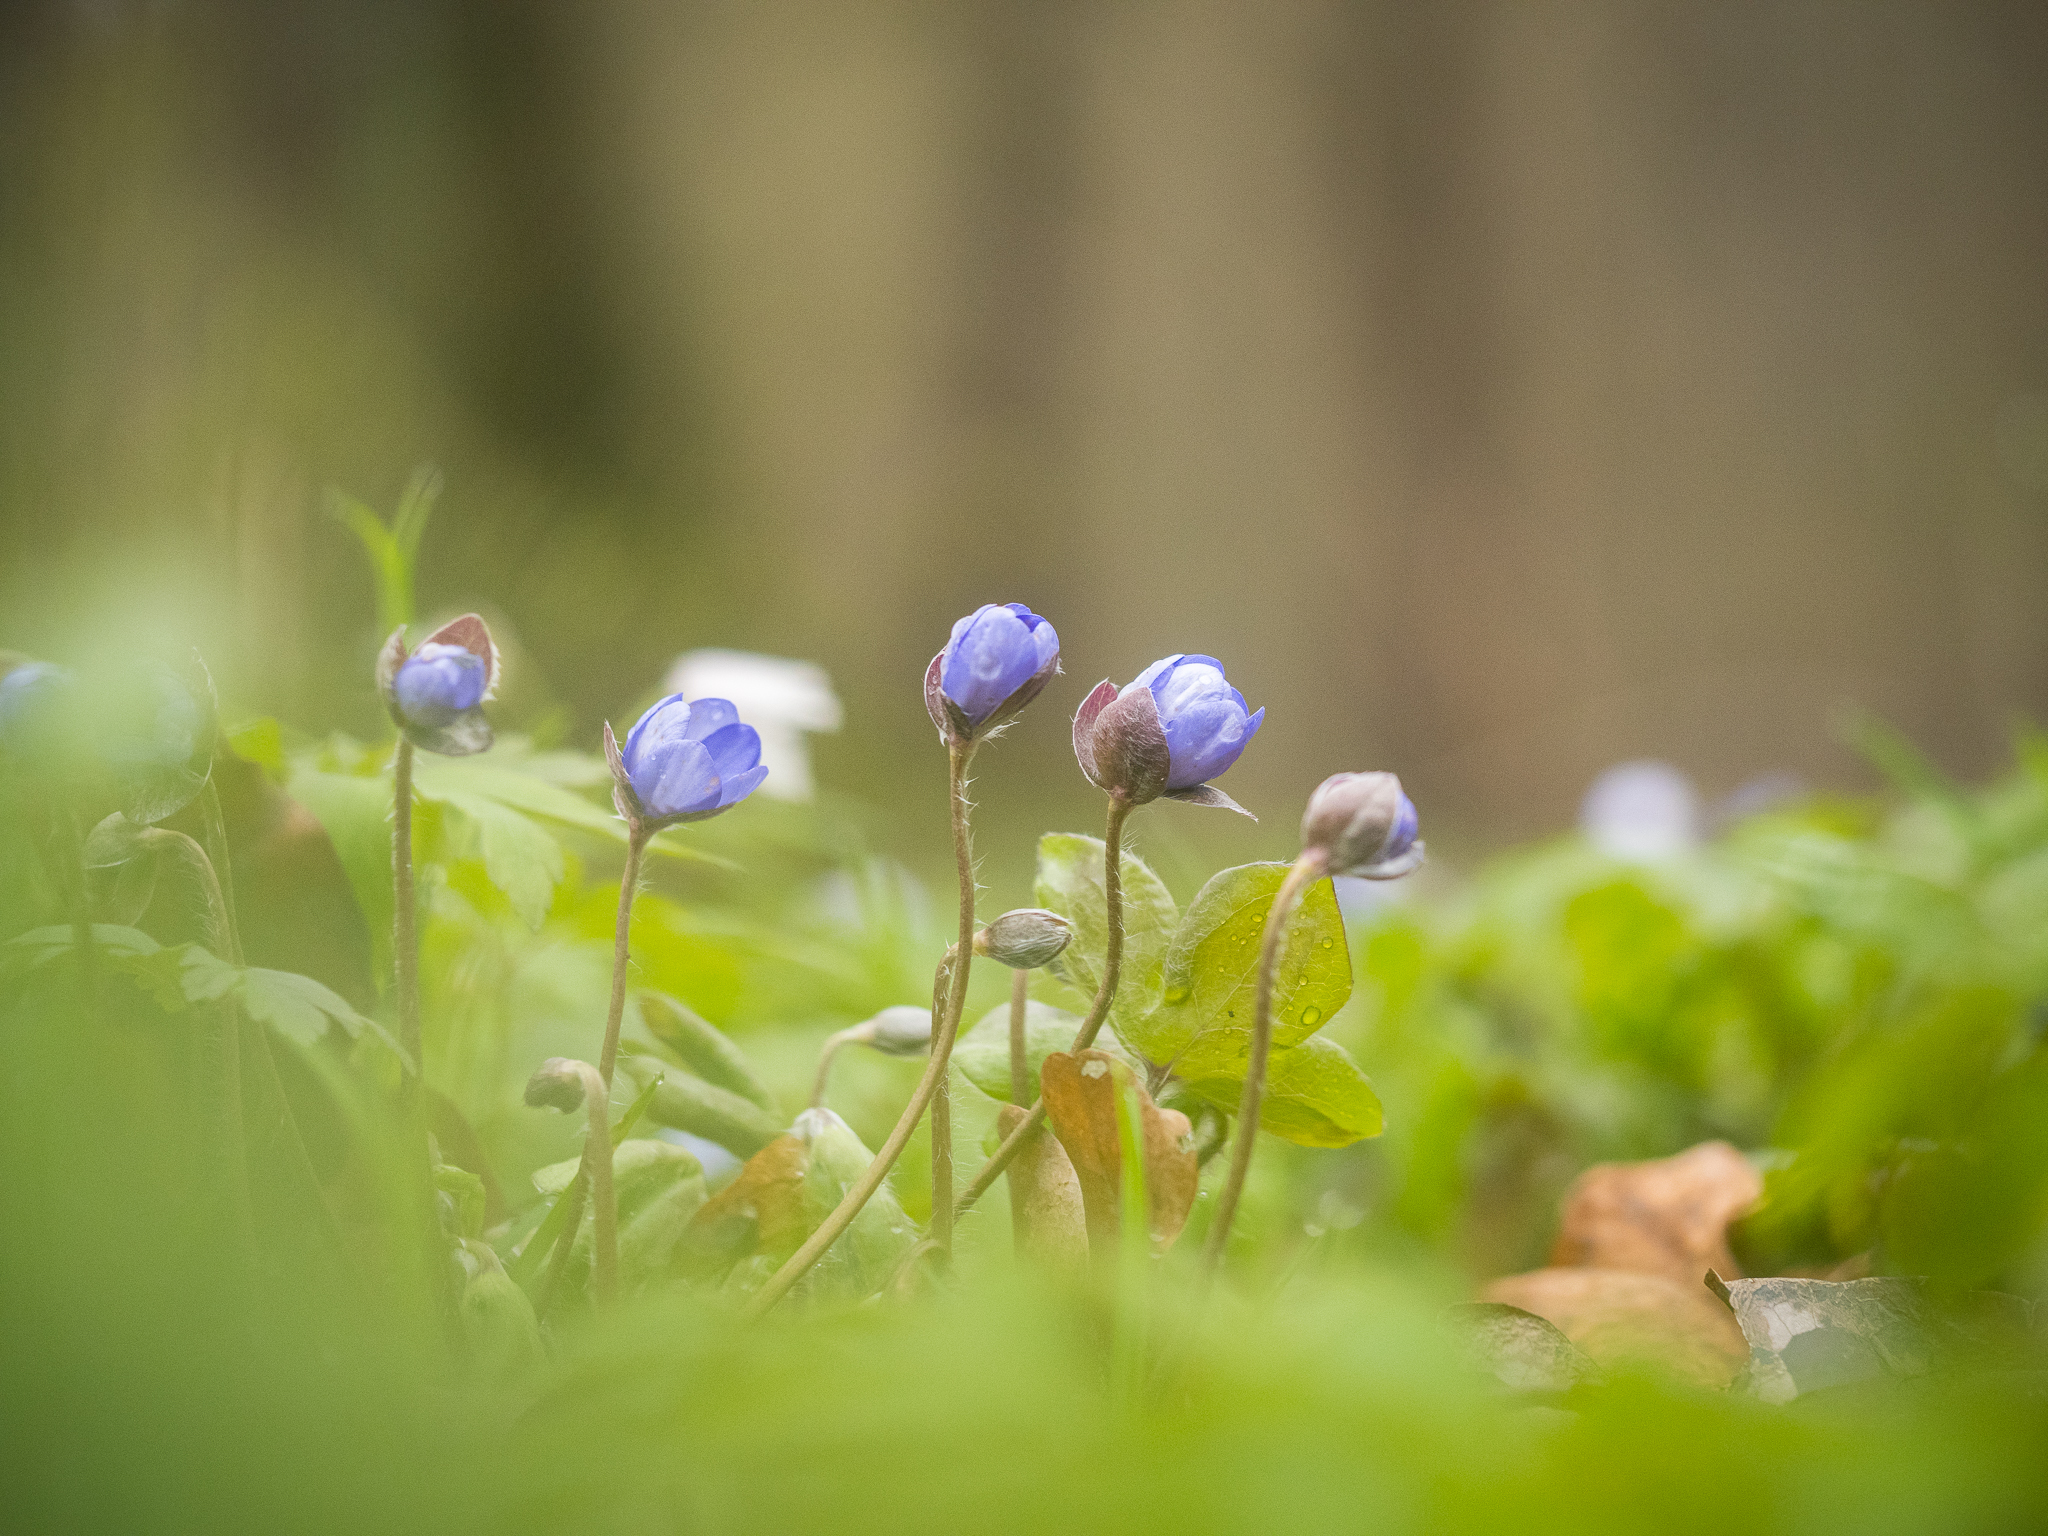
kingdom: Plantae
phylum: Tracheophyta
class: Magnoliopsida
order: Ranunculales
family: Ranunculaceae
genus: Hepatica
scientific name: Hepatica nobilis
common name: Liverleaf
